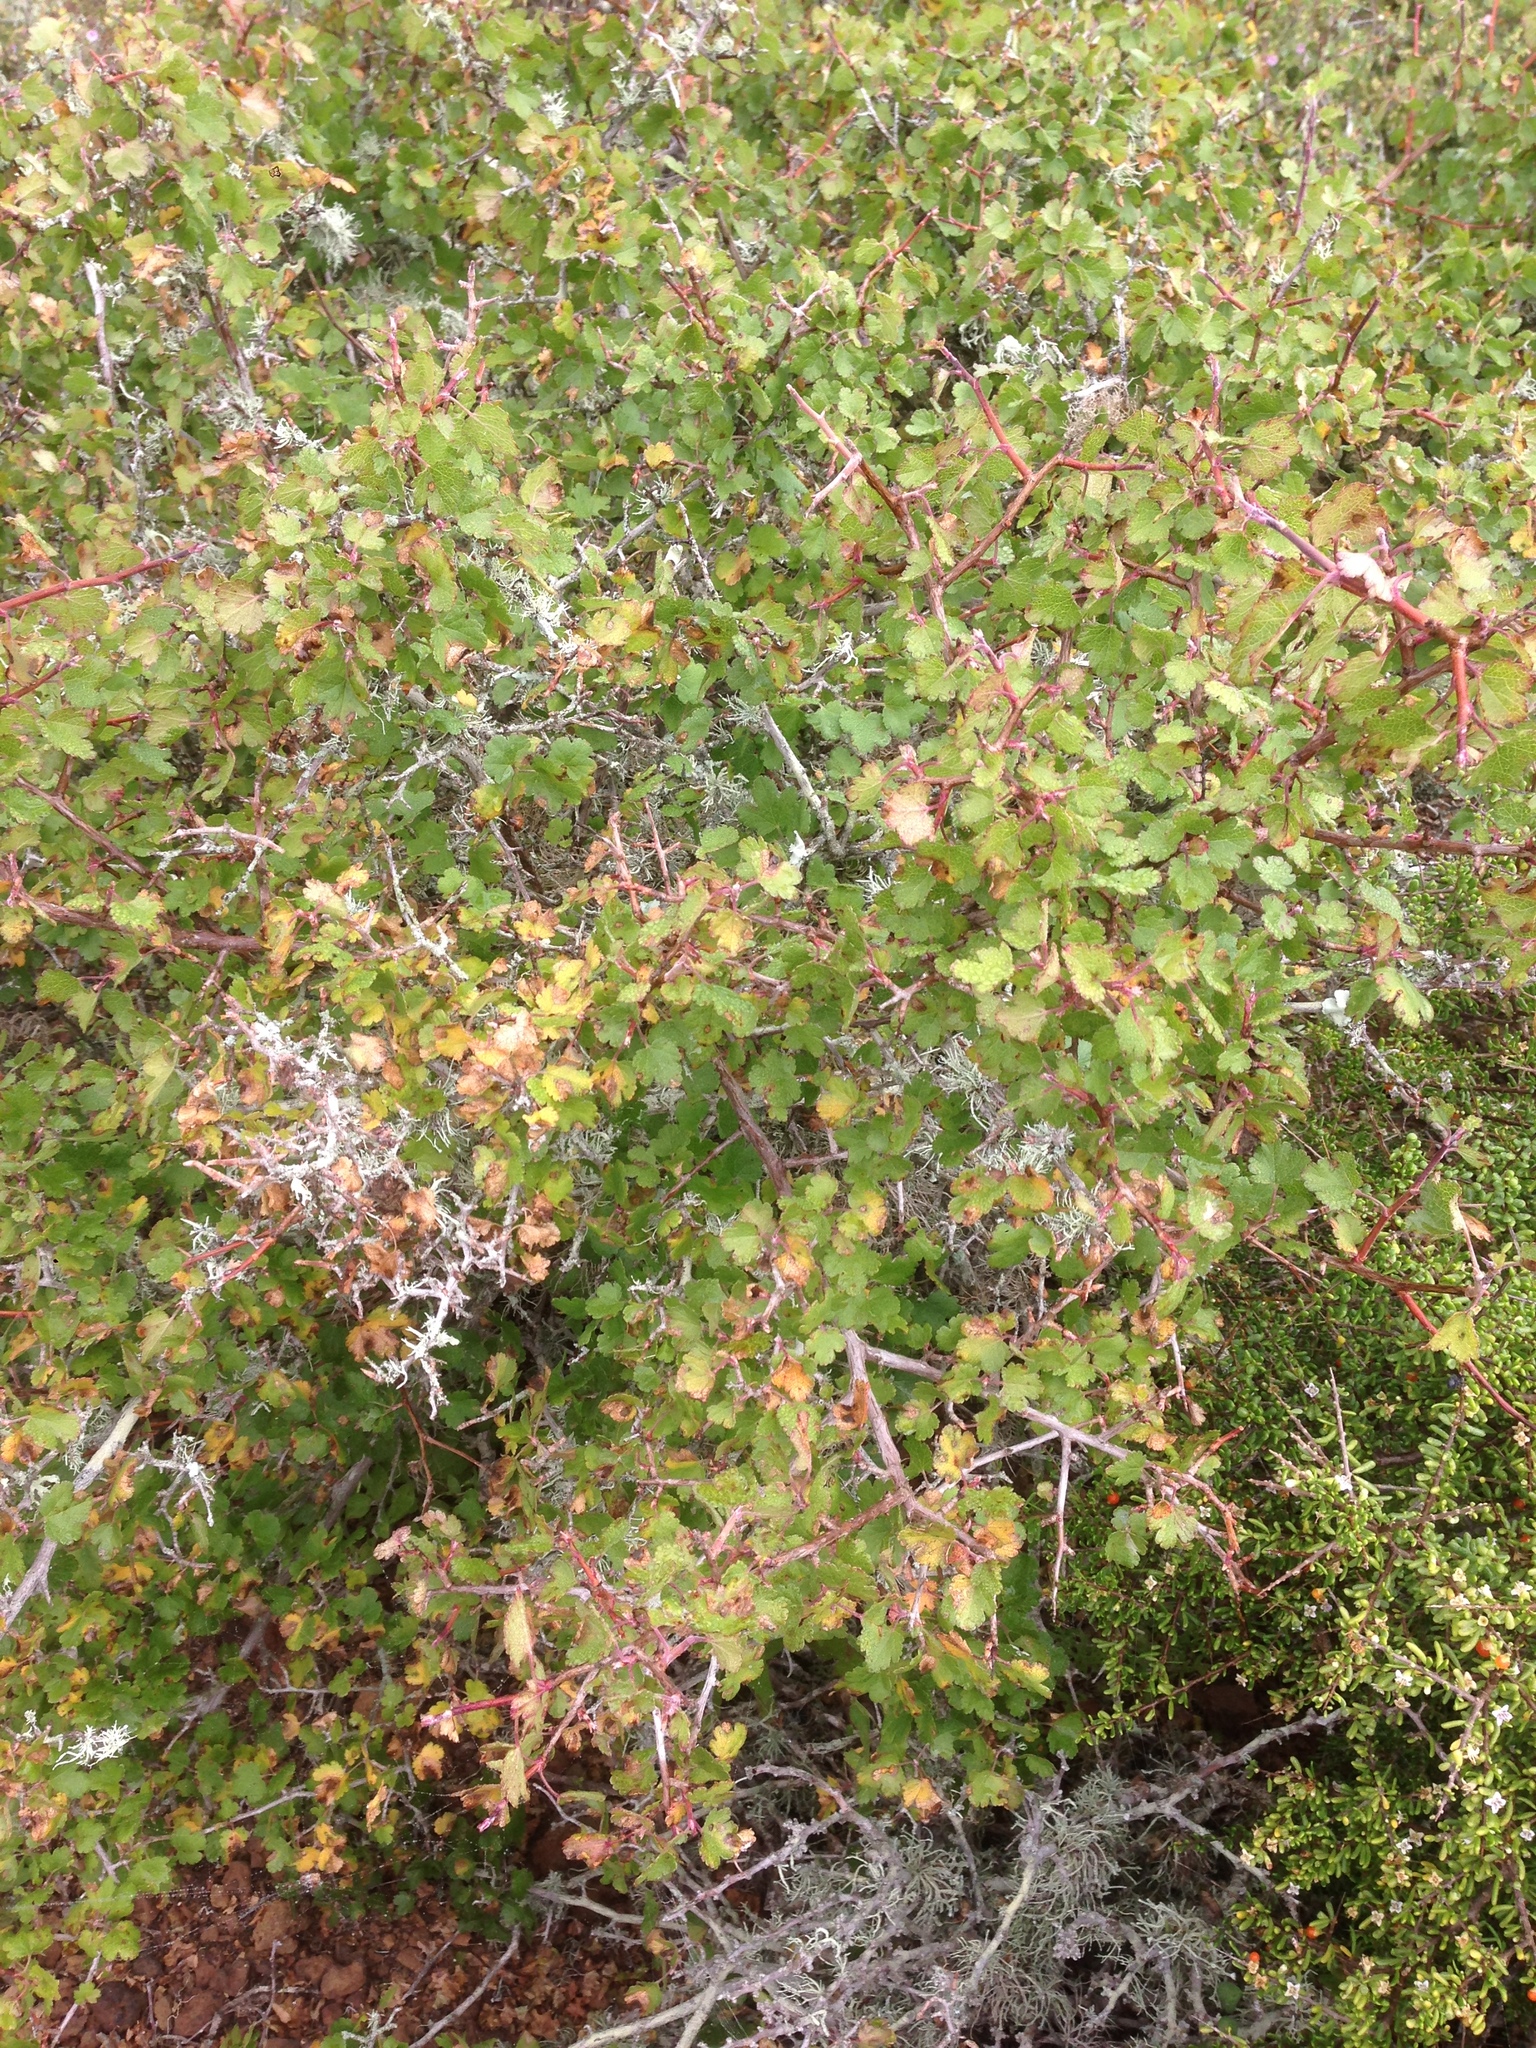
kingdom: Plantae
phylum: Tracheophyta
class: Magnoliopsida
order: Saxifragales
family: Grossulariaceae
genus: Ribes
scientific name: Ribes tortuosum
